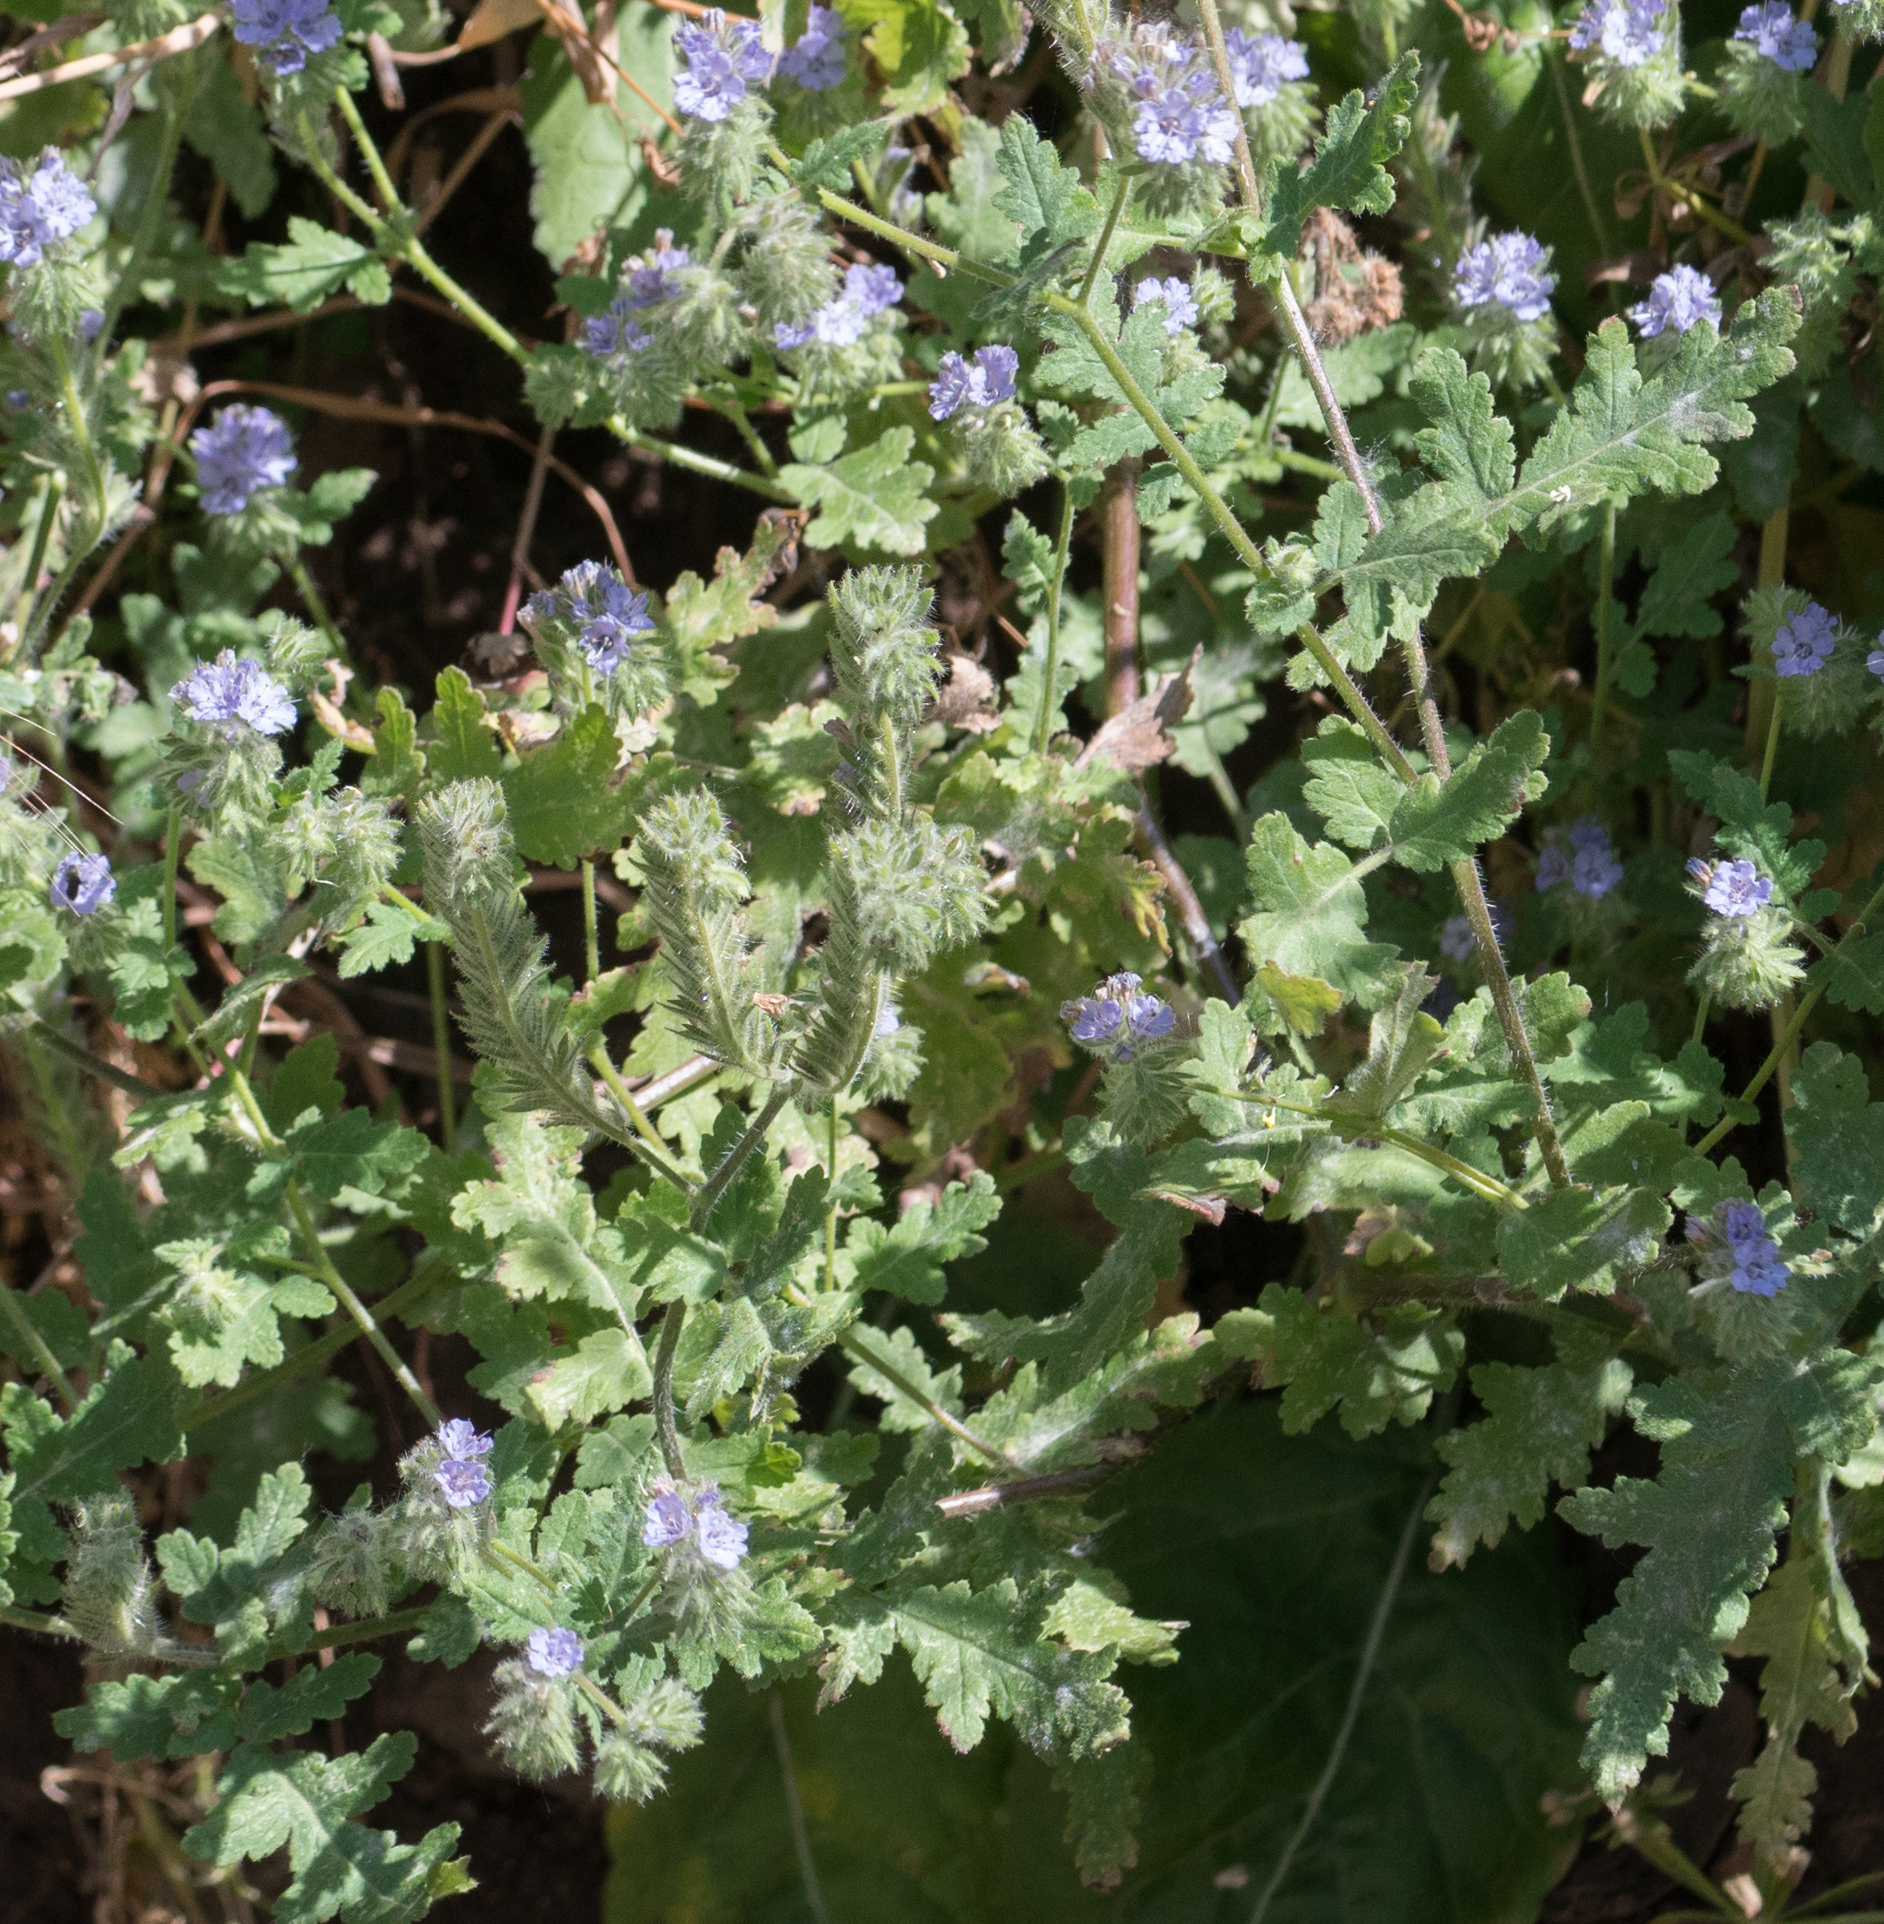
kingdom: Plantae
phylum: Tracheophyta
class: Magnoliopsida
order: Boraginales
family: Hydrophyllaceae
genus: Phacelia
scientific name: Phacelia distans
